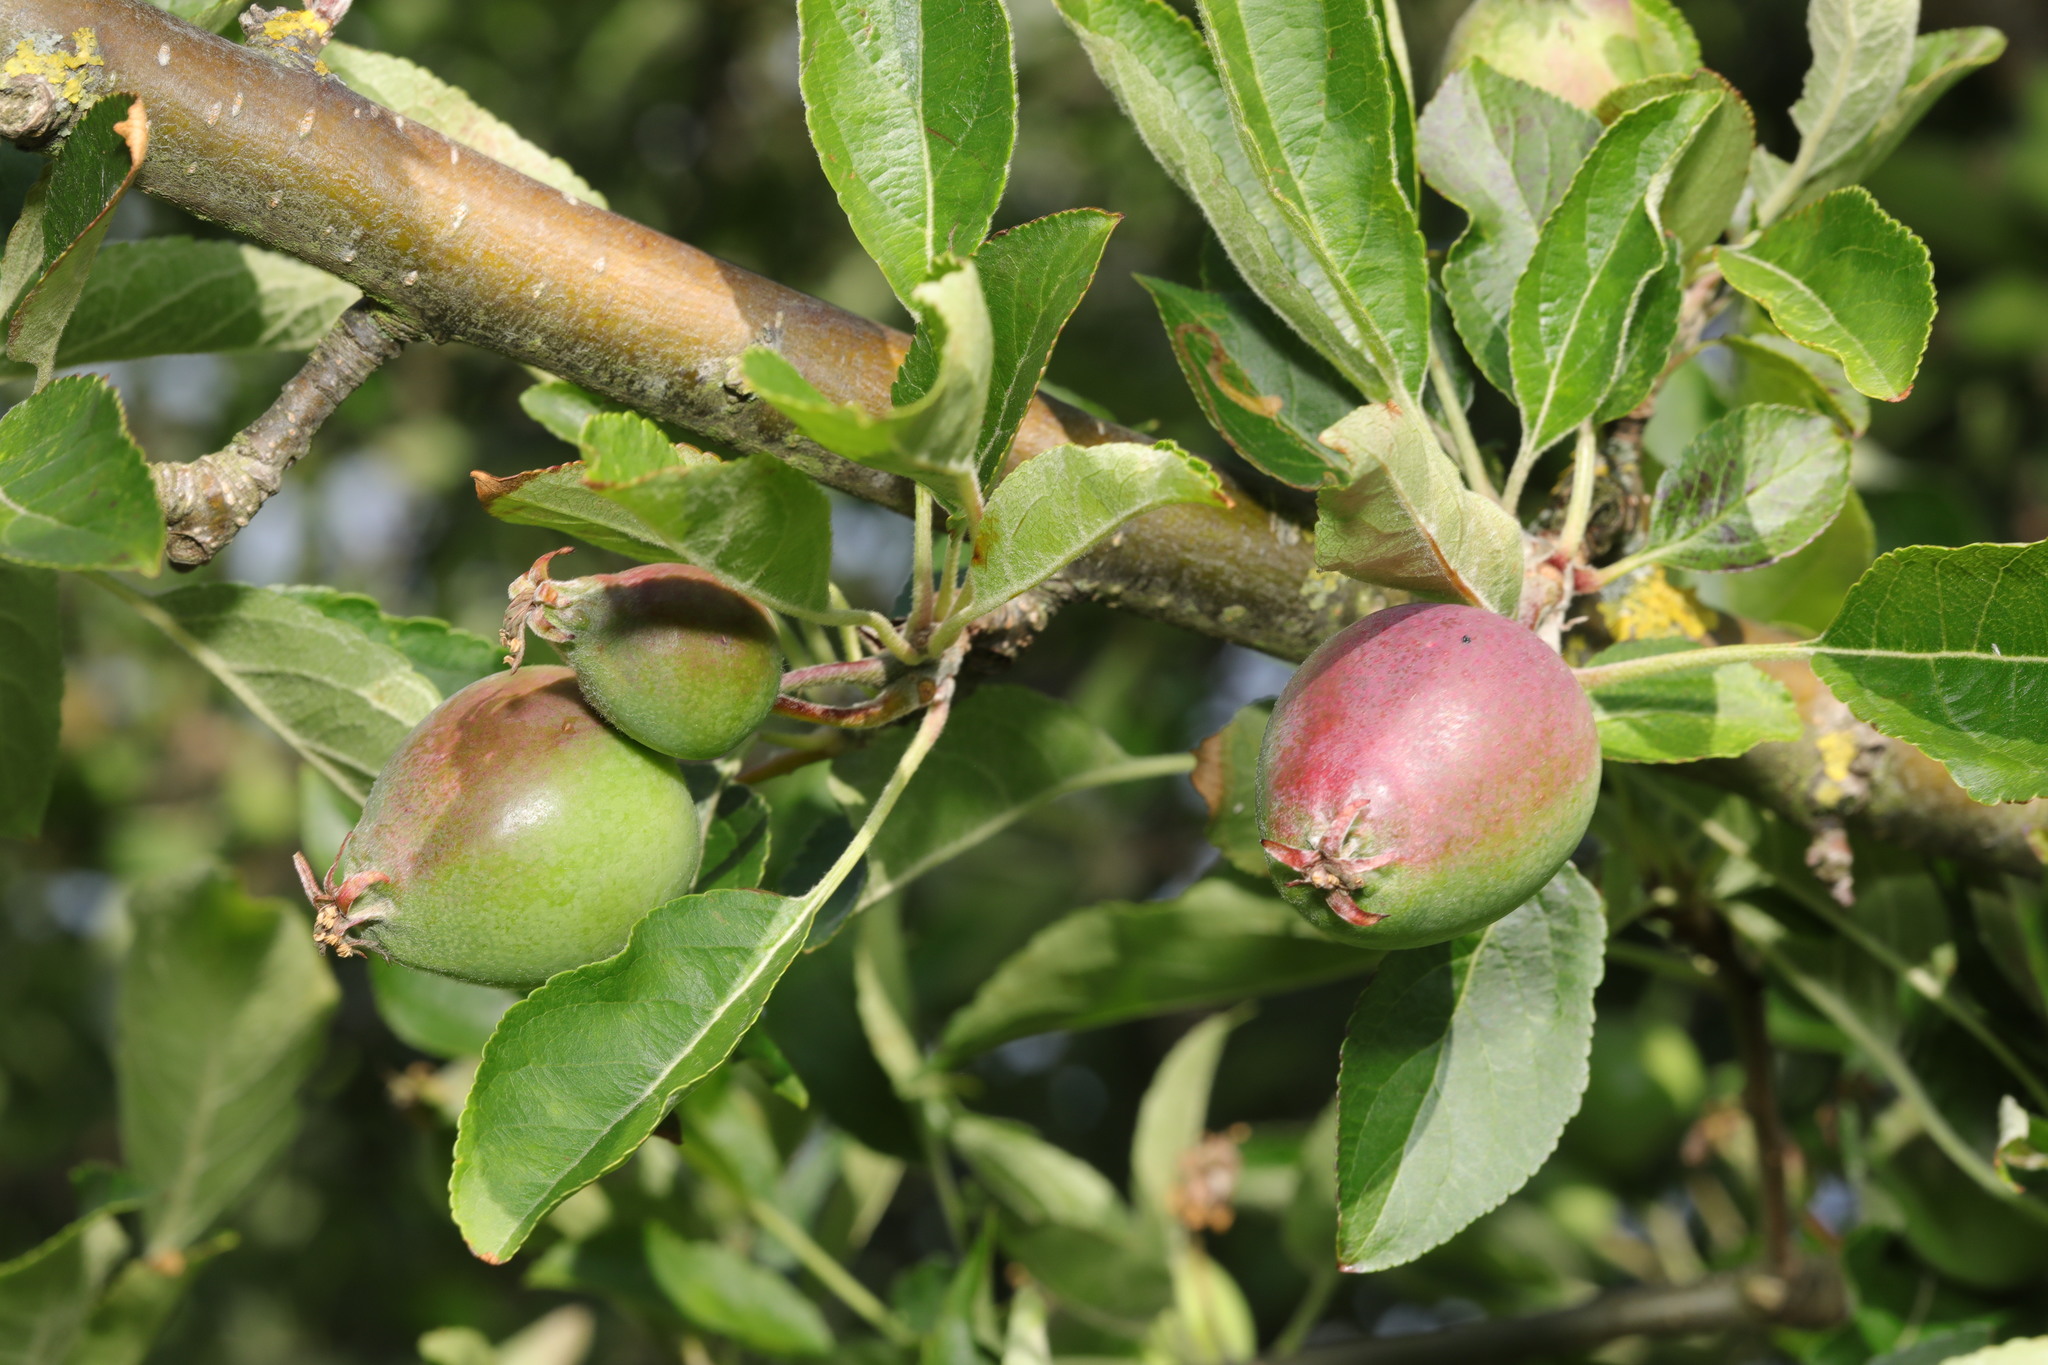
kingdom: Plantae
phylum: Tracheophyta
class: Magnoliopsida
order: Rosales
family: Rosaceae
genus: Malus
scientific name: Malus domestica
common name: Apple
